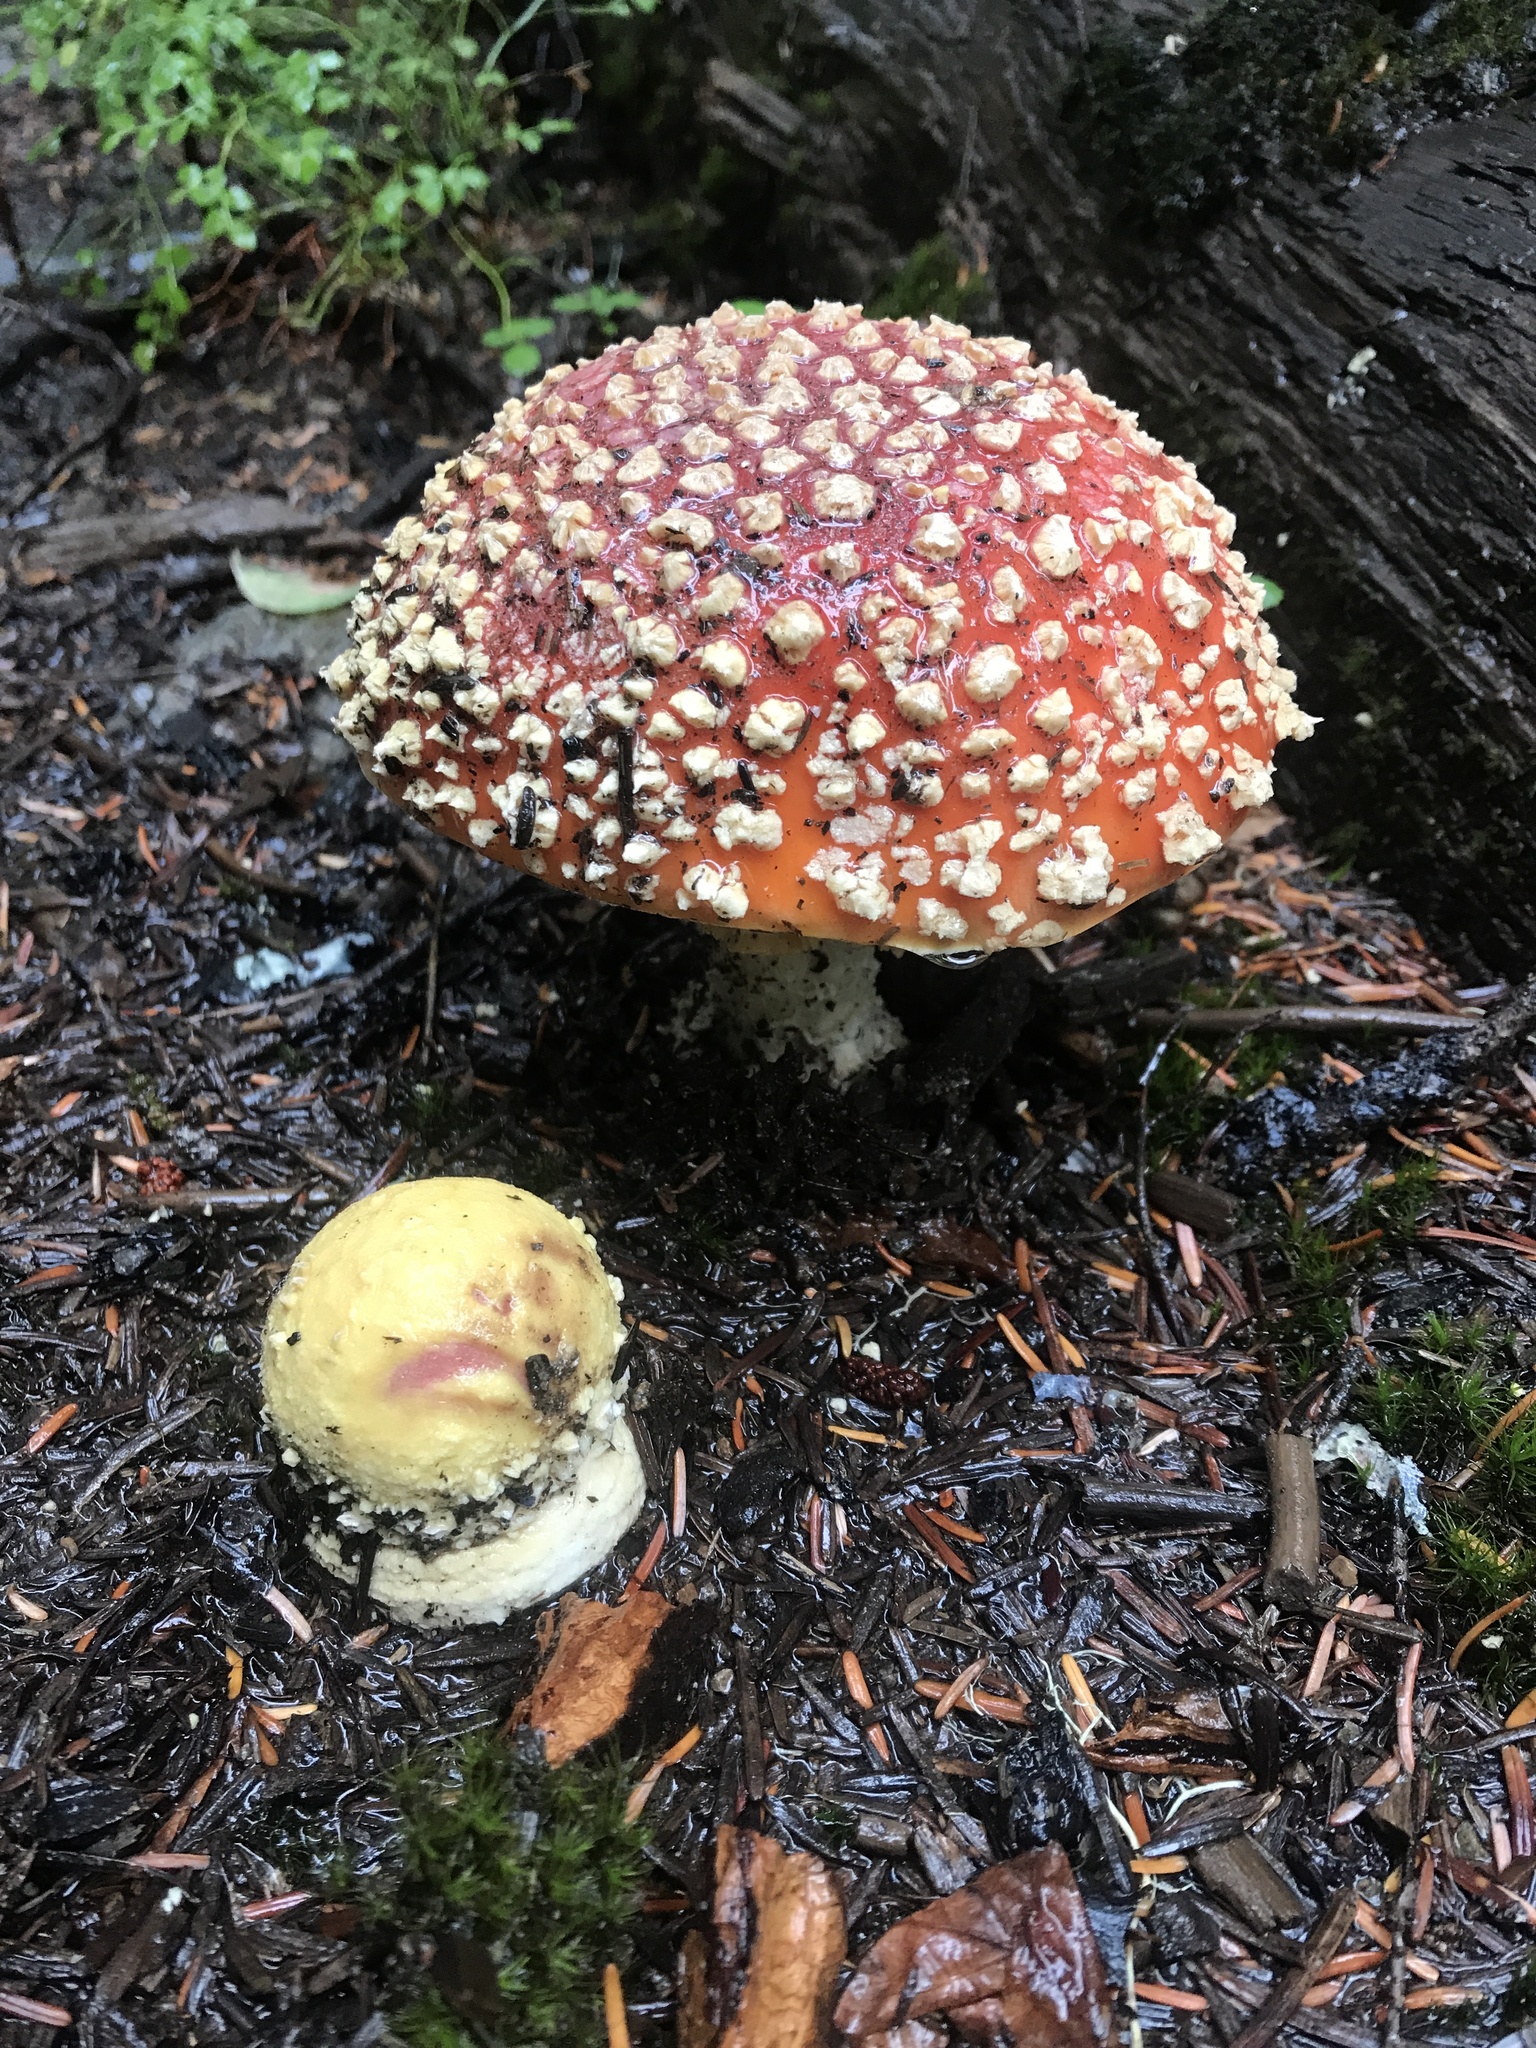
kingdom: Fungi
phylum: Basidiomycota
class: Agaricomycetes
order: Agaricales
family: Amanitaceae
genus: Amanita
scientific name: Amanita muscaria
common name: Fly agaric
